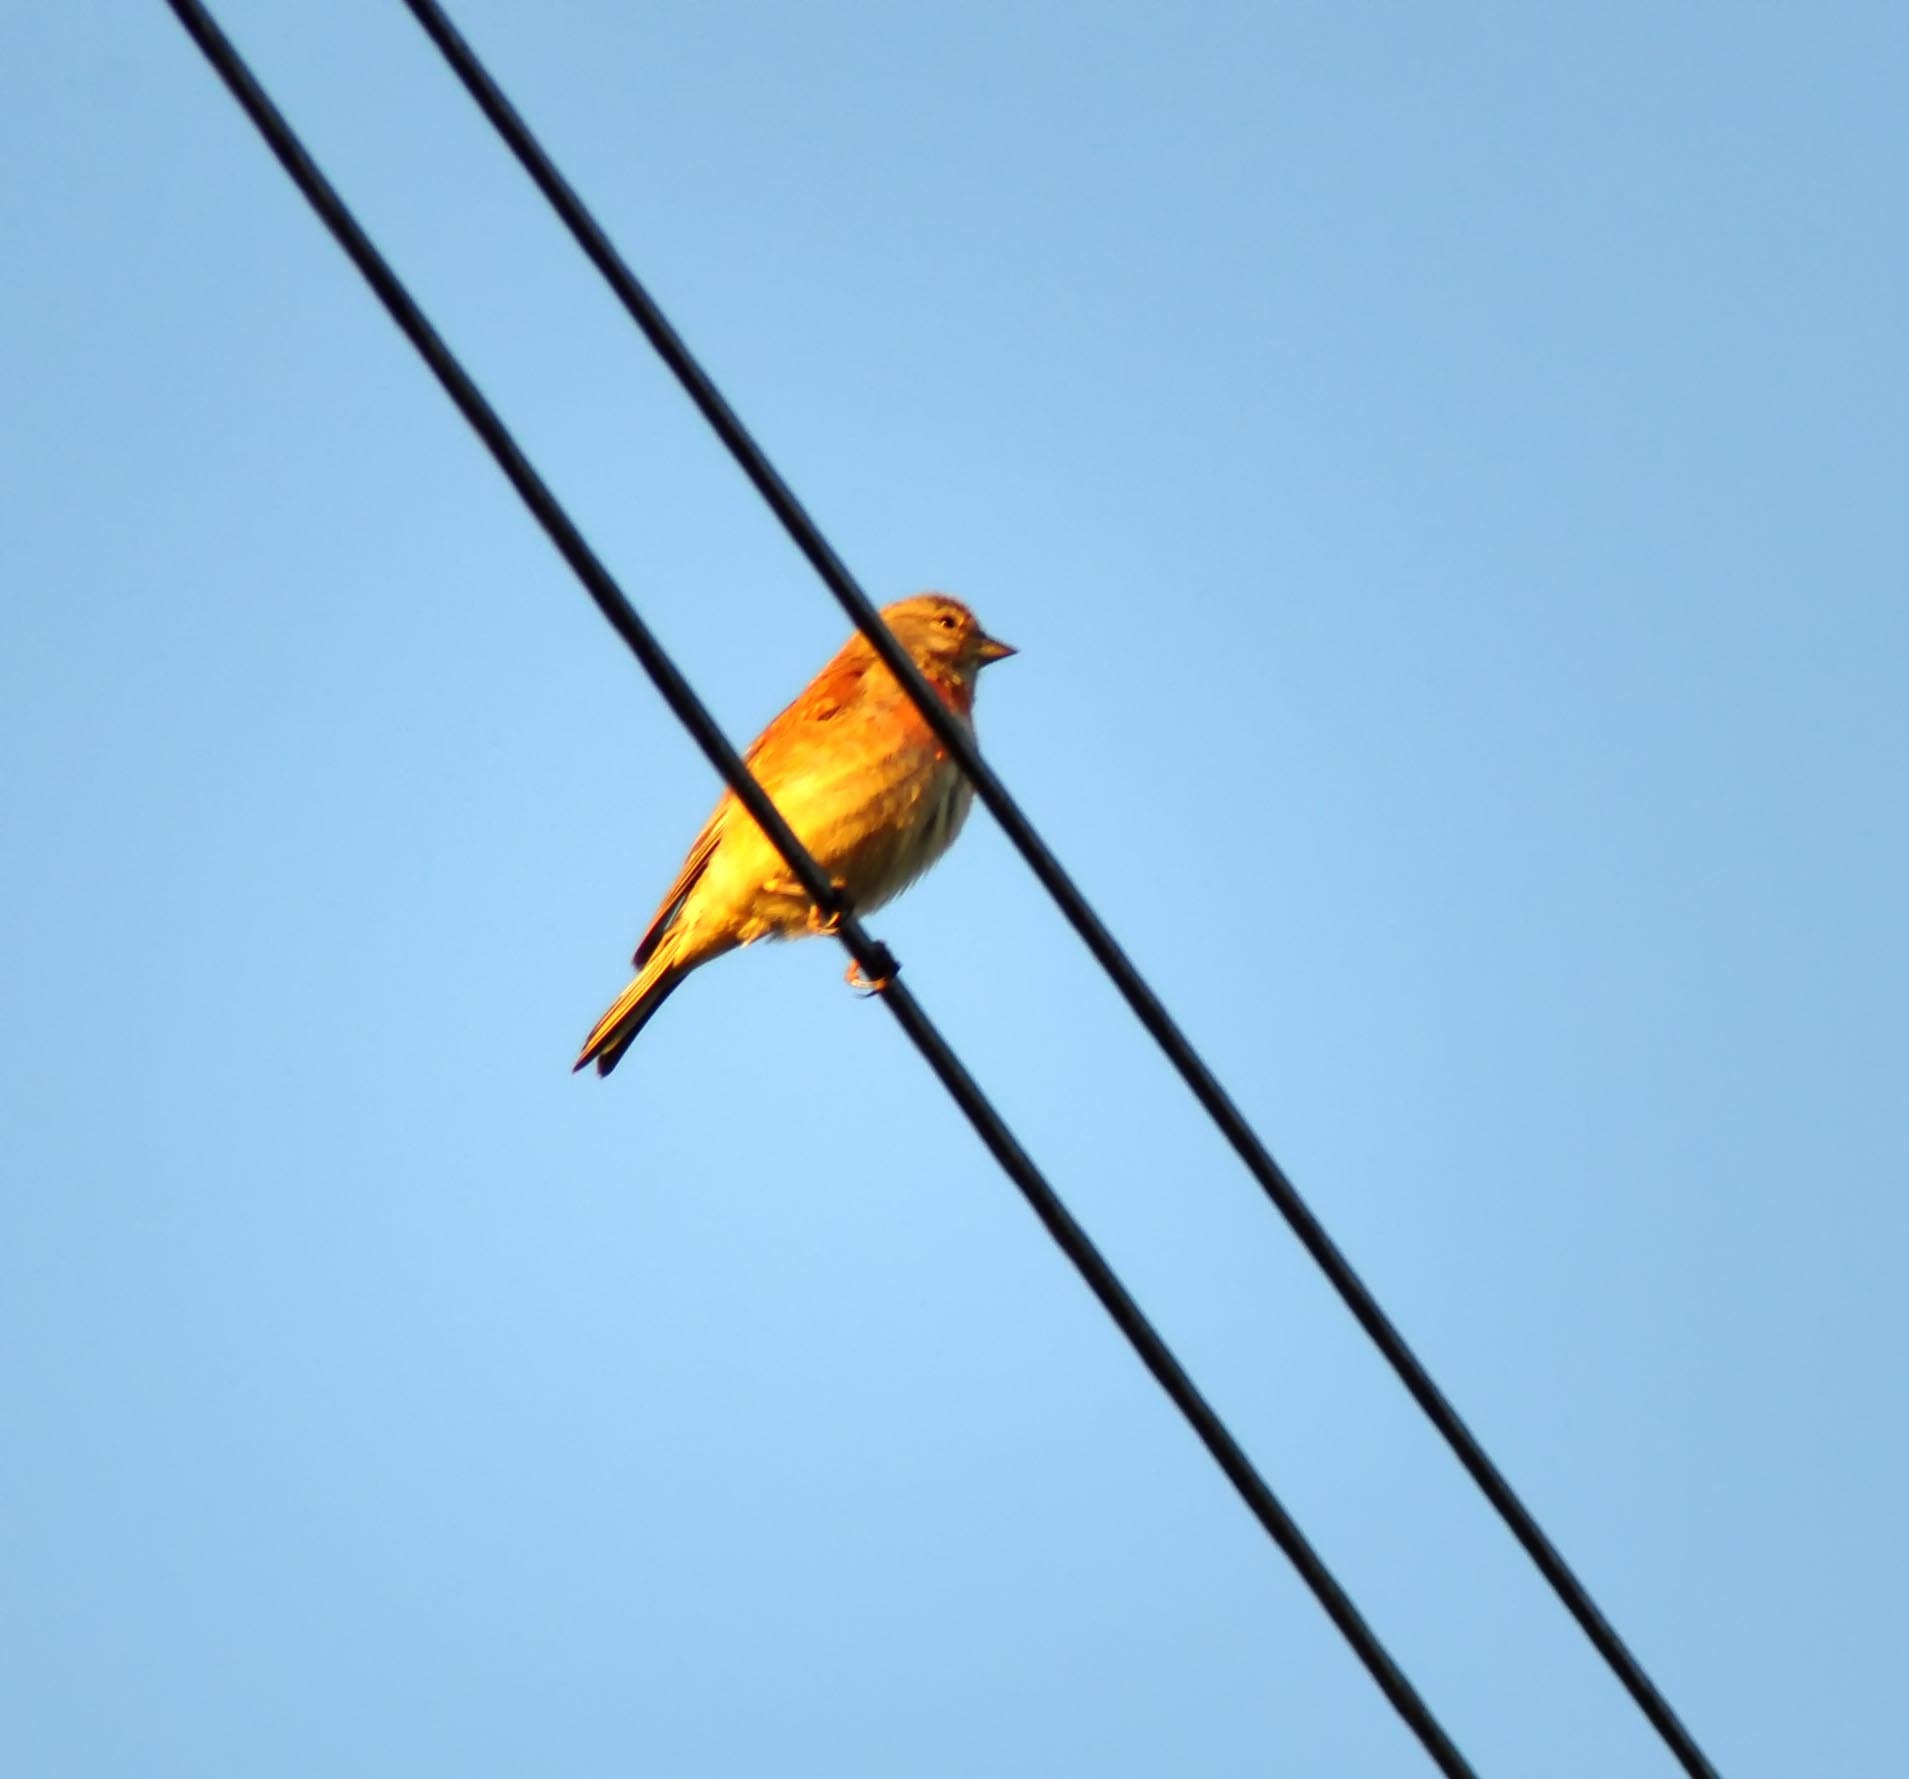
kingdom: Animalia
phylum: Chordata
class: Aves
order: Passeriformes
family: Fringillidae
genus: Linaria
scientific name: Linaria cannabina
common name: Common linnet
